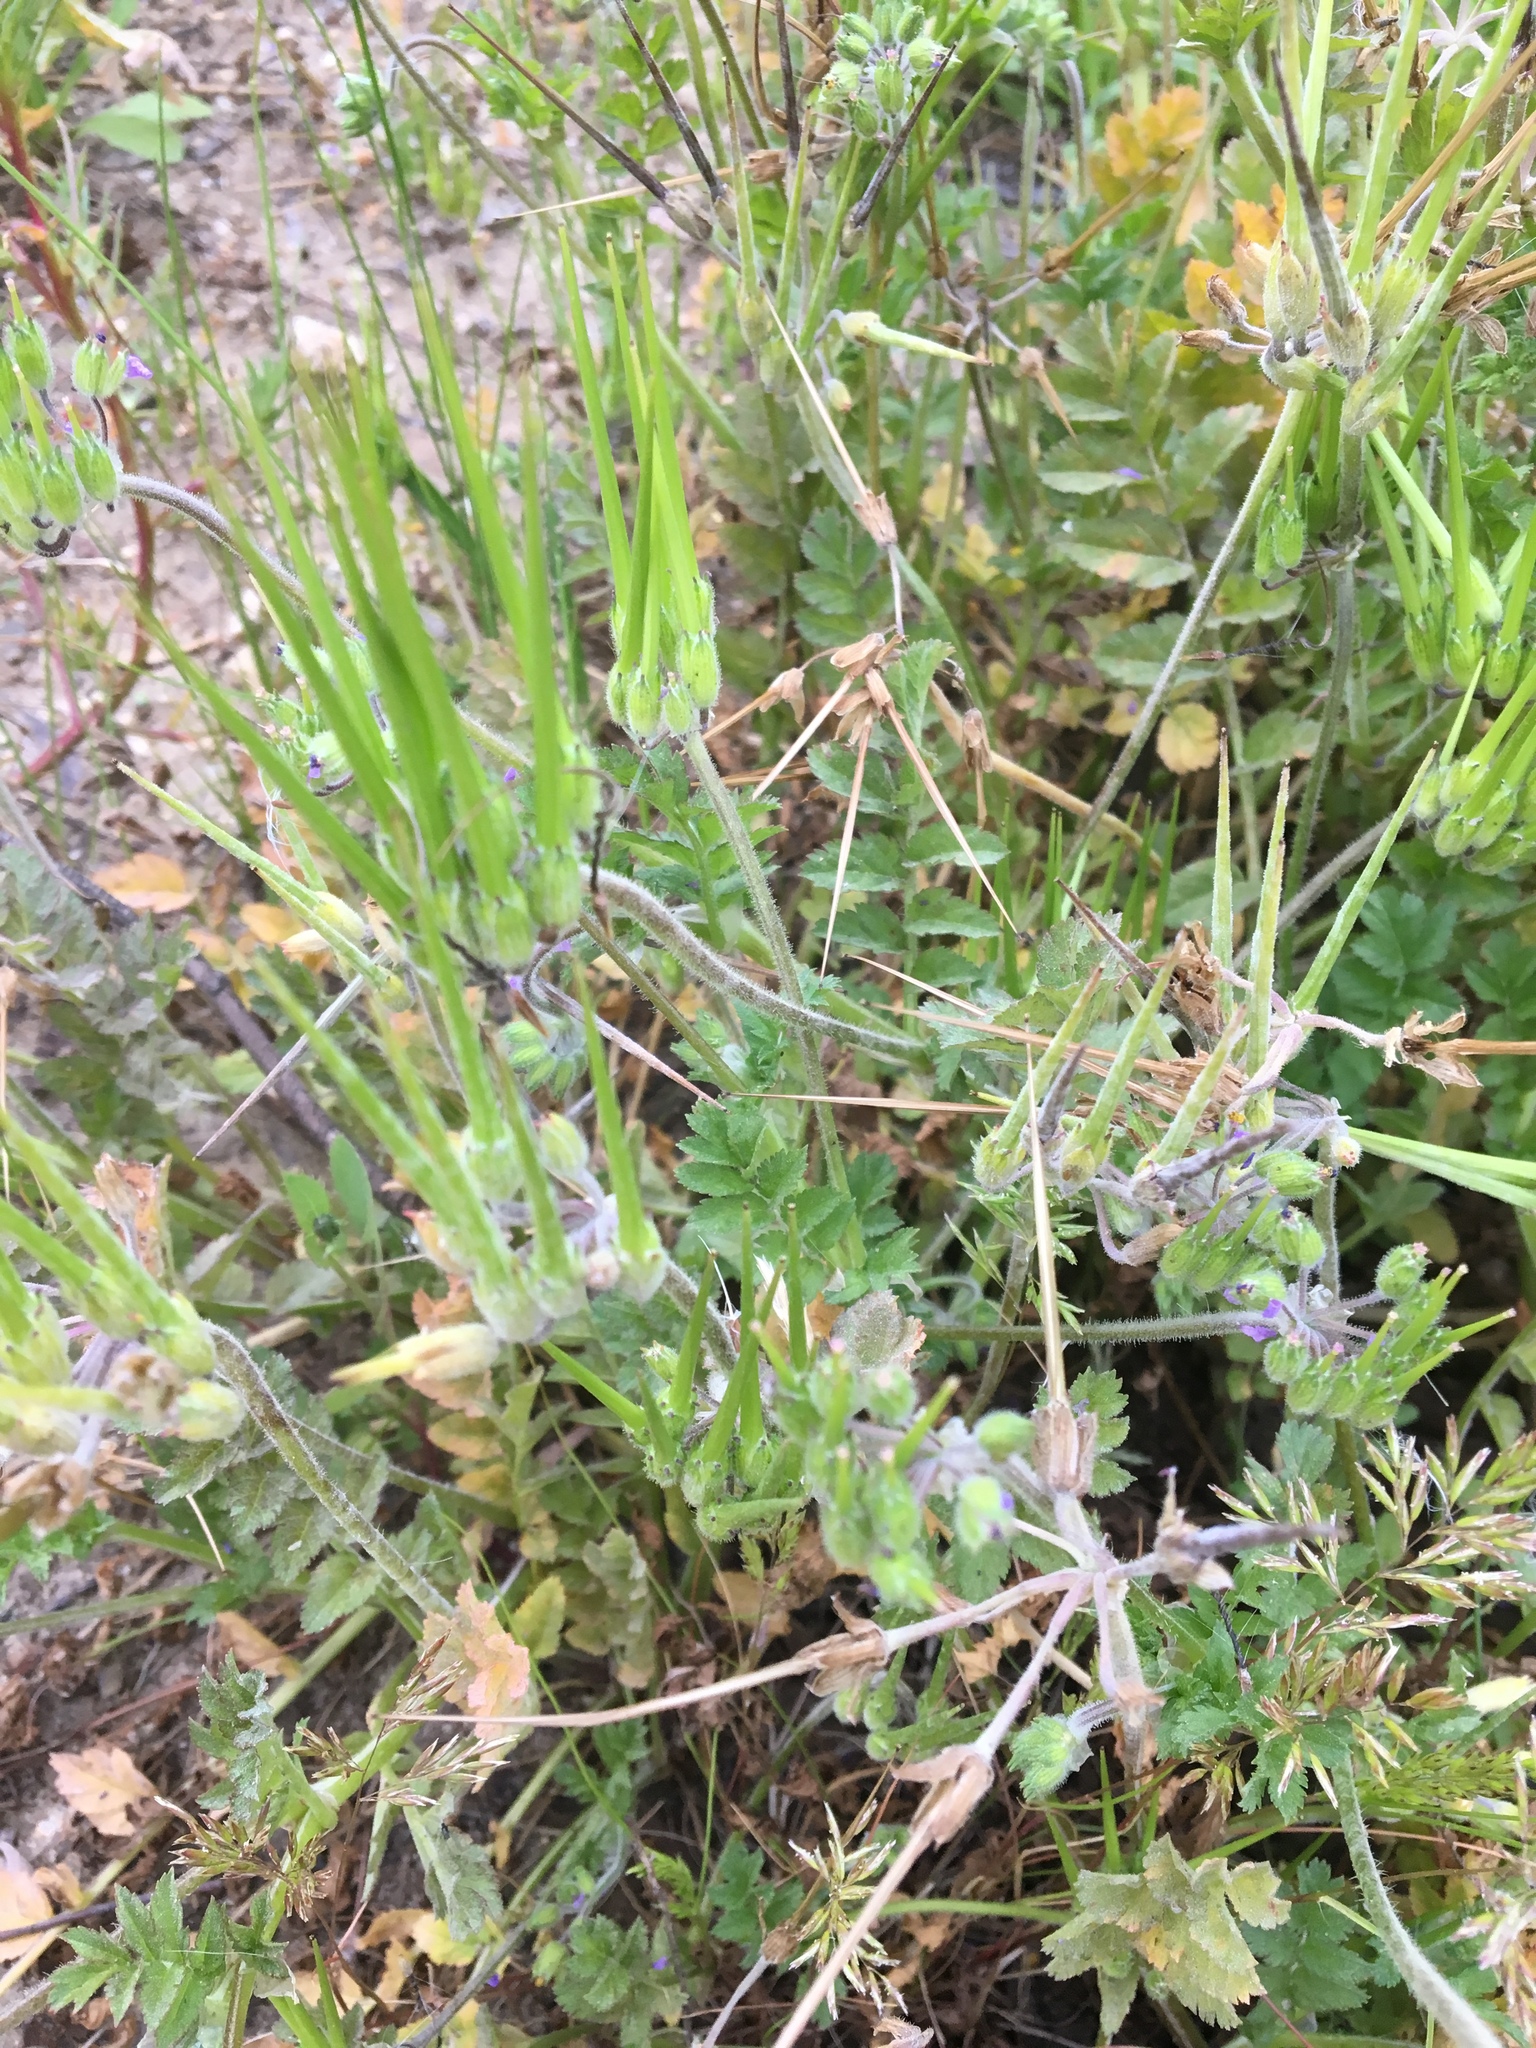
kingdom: Plantae
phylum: Tracheophyta
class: Magnoliopsida
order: Geraniales
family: Geraniaceae
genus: Erodium
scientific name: Erodium moschatum
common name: Musk stork's-bill
